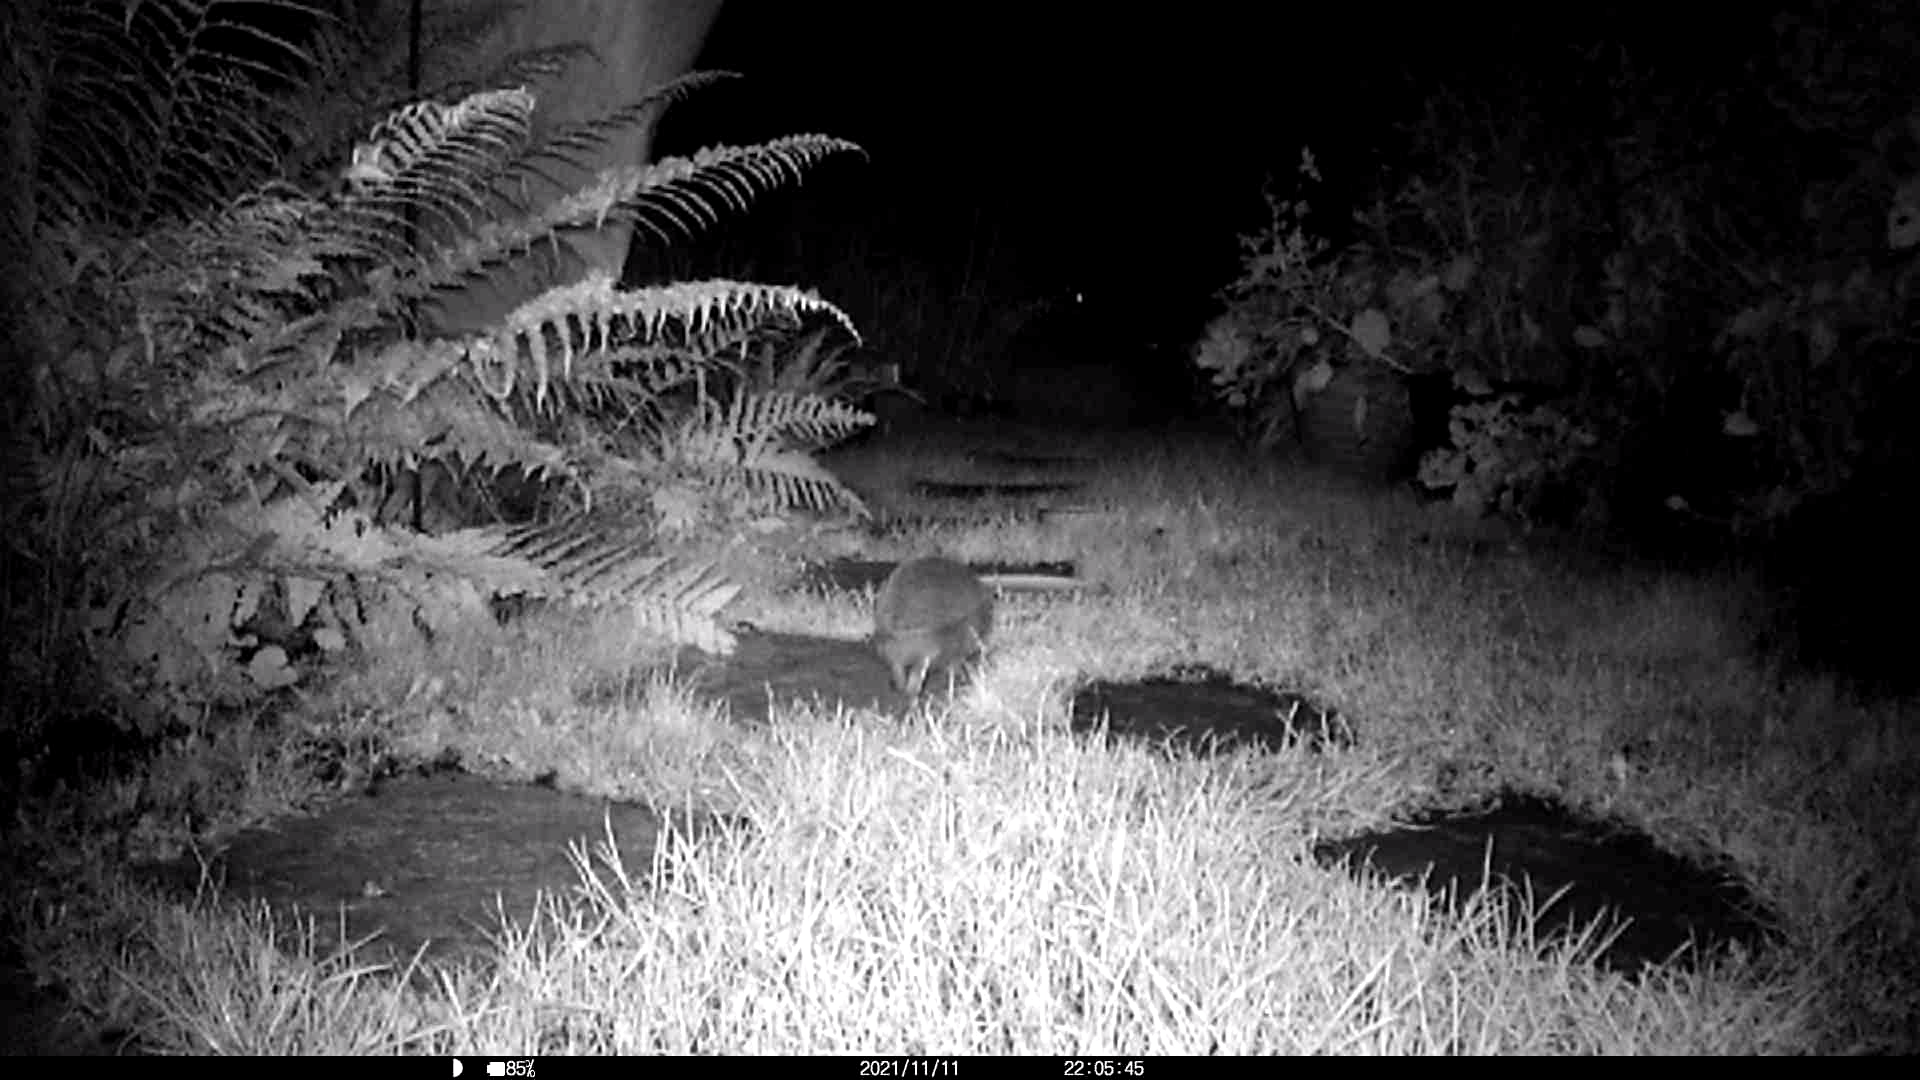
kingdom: Animalia
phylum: Chordata
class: Mammalia
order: Erinaceomorpha
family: Erinaceidae
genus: Erinaceus
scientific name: Erinaceus europaeus
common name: West european hedgehog
